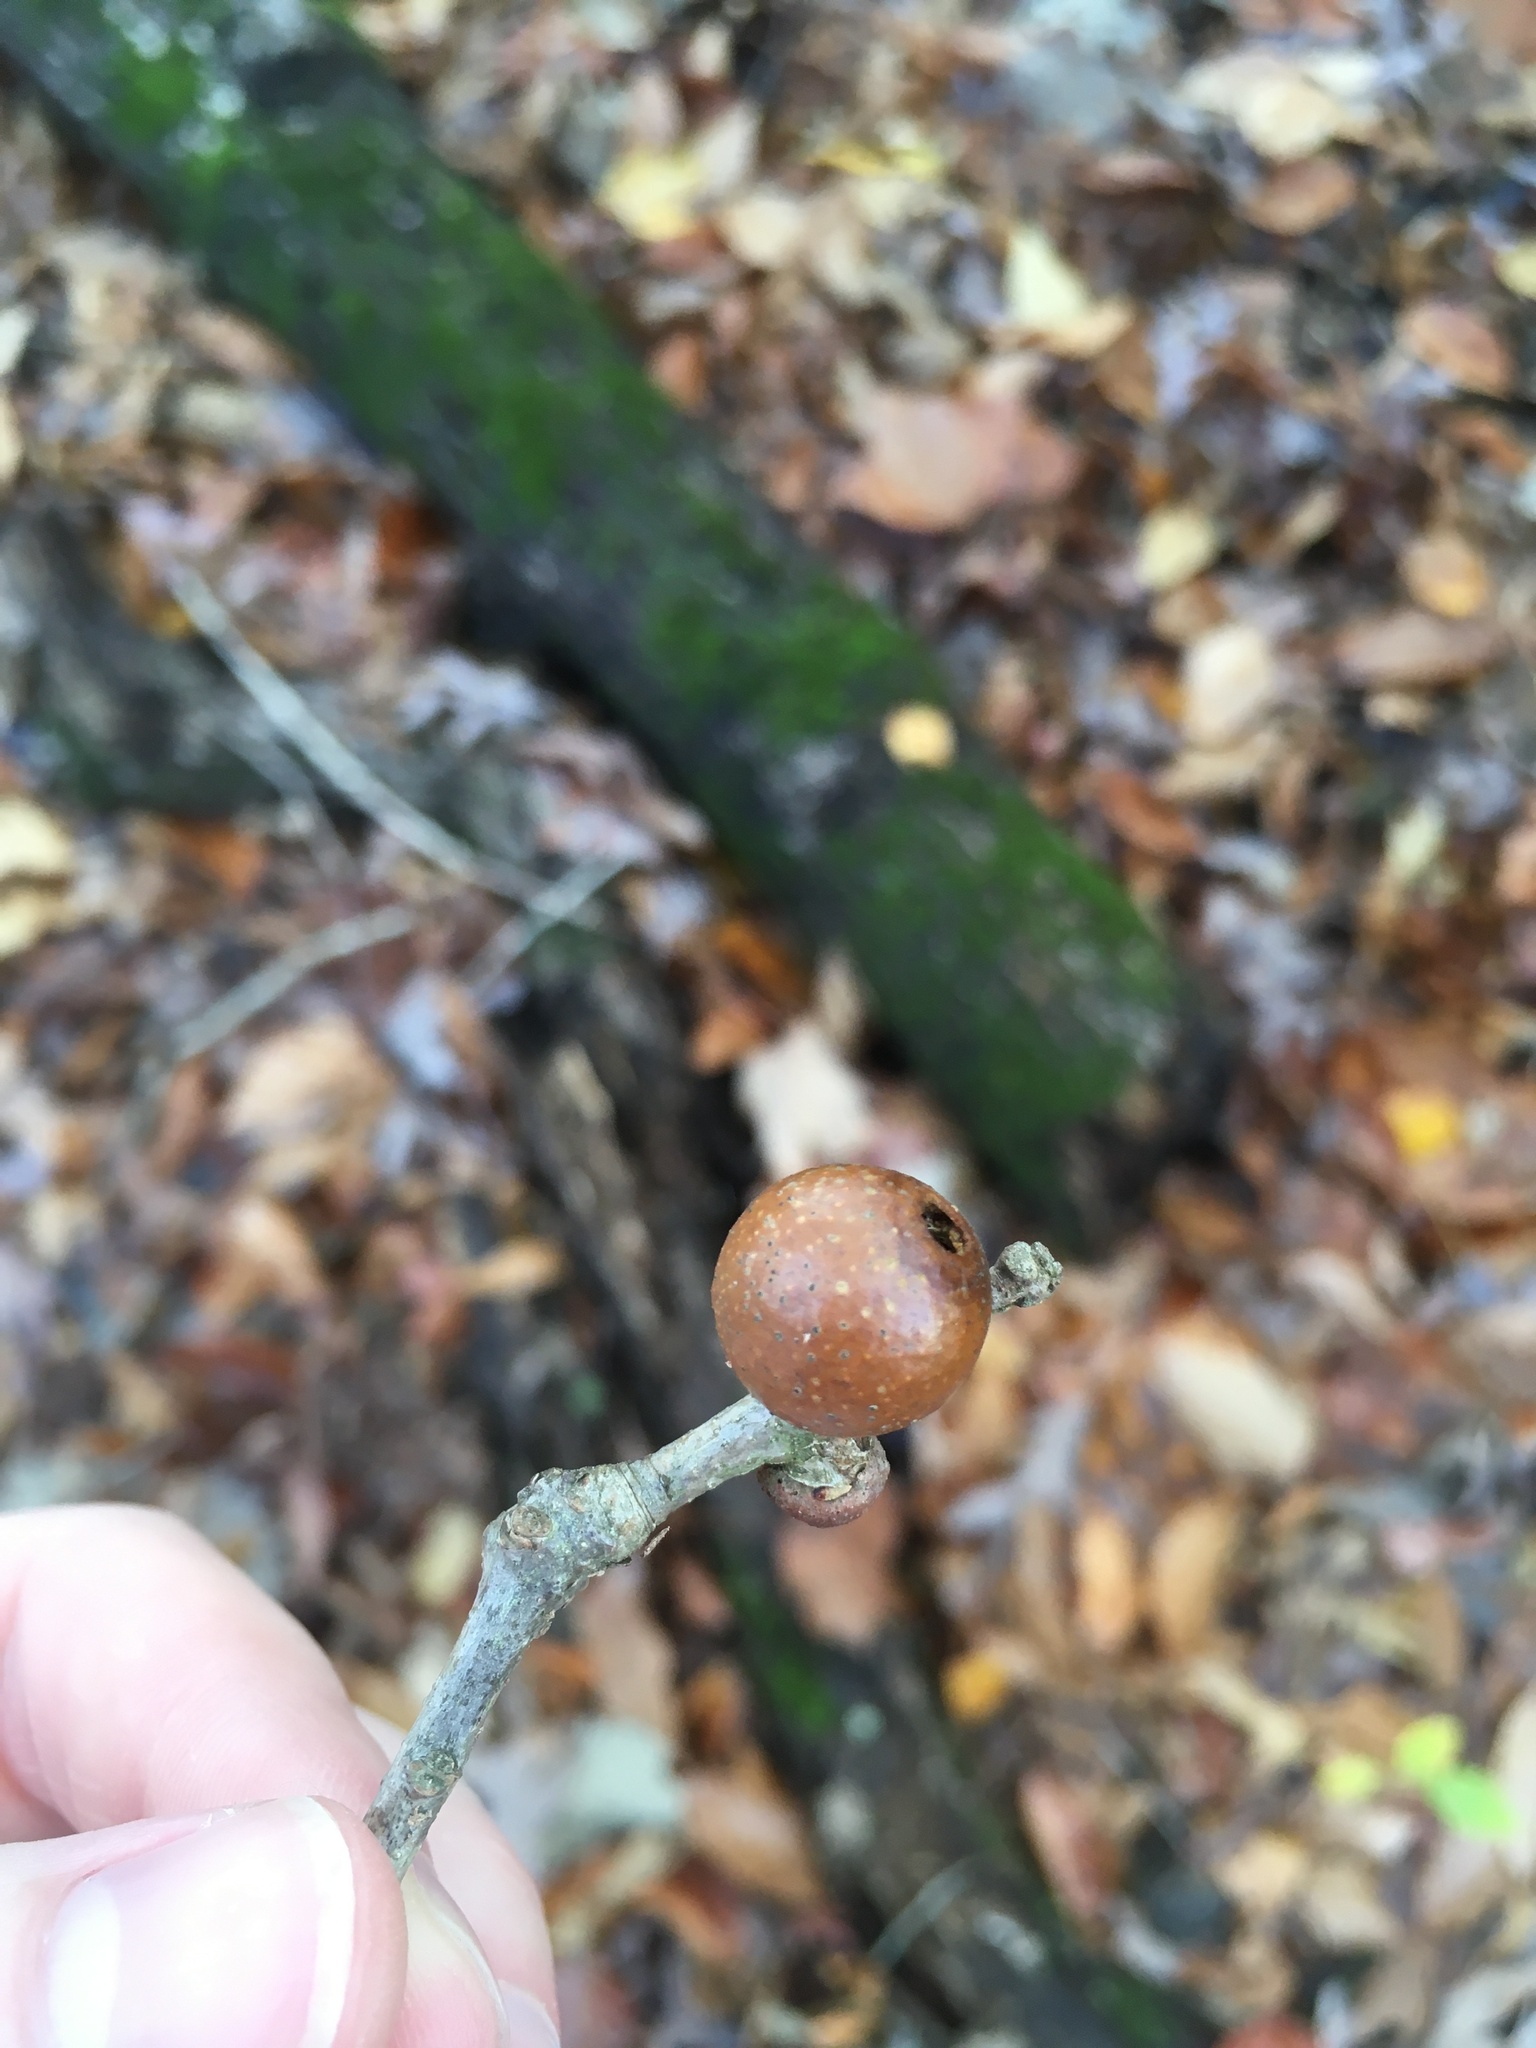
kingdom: Animalia
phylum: Arthropoda
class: Insecta
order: Hymenoptera
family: Cynipidae
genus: Disholcaspis
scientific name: Disholcaspis quercusglobulus
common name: Round bullet gall wasp
